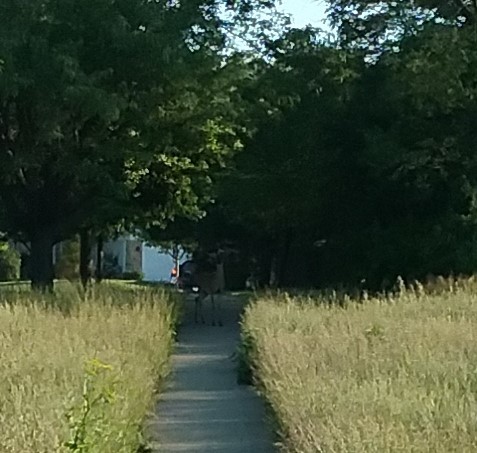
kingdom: Animalia
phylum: Chordata
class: Mammalia
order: Artiodactyla
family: Cervidae
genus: Odocoileus
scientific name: Odocoileus virginianus
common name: White-tailed deer
